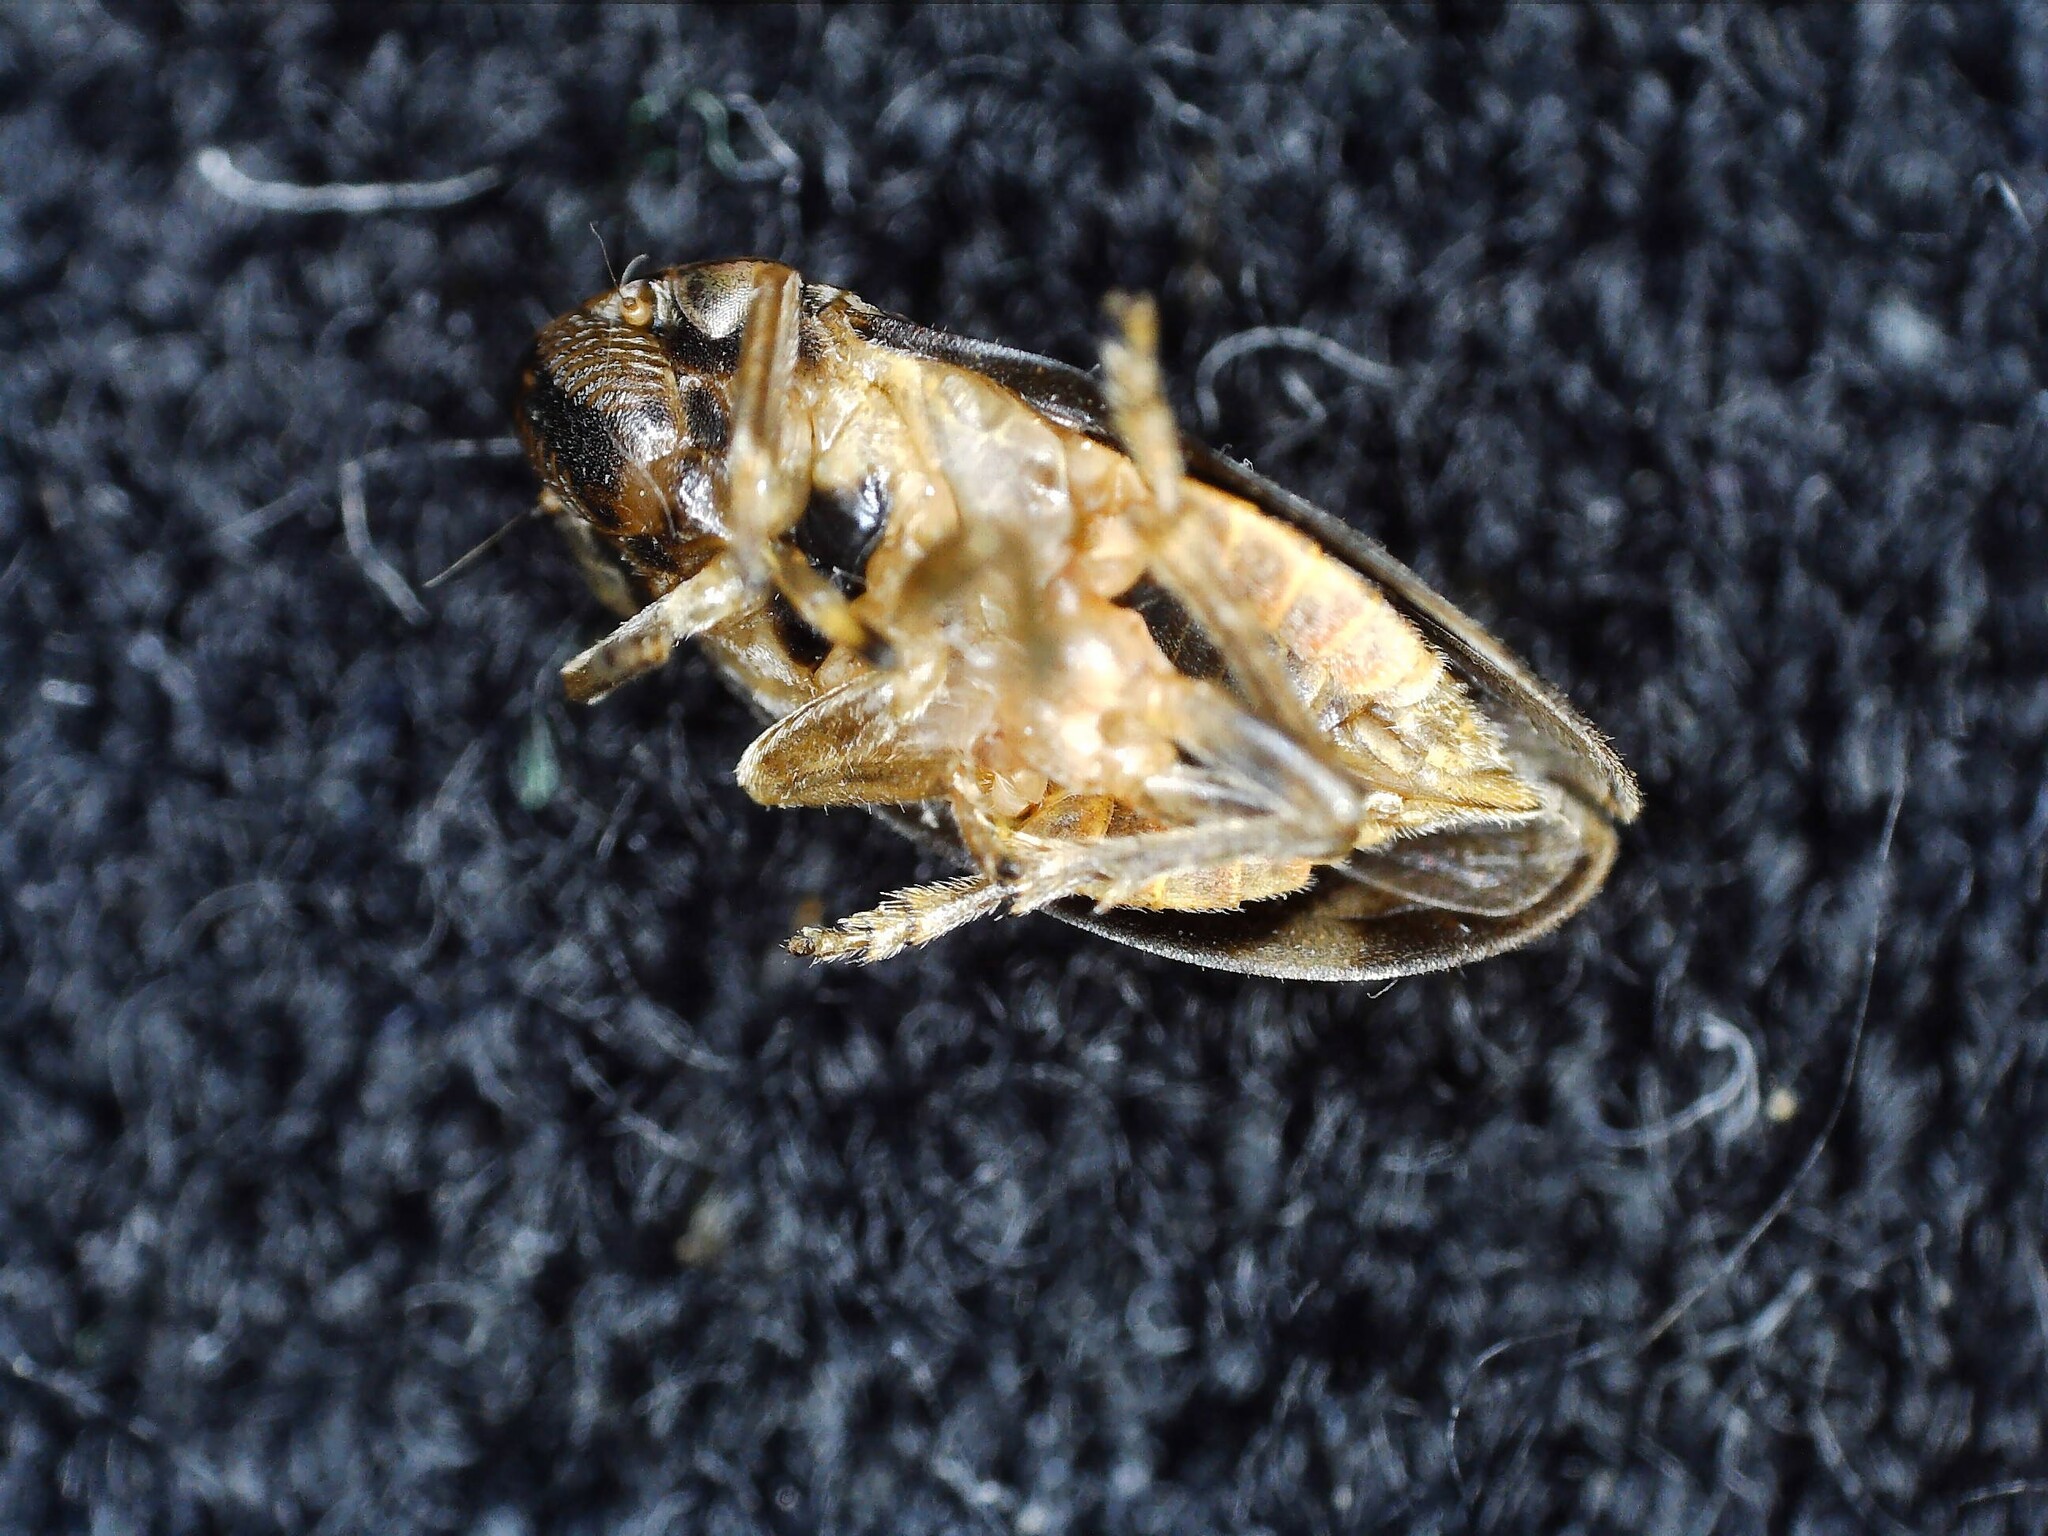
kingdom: Animalia
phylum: Arthropoda
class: Insecta
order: Hemiptera
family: Aphrophoridae
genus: Philaenus
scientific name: Philaenus spumarius
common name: Meadow spittlebug
